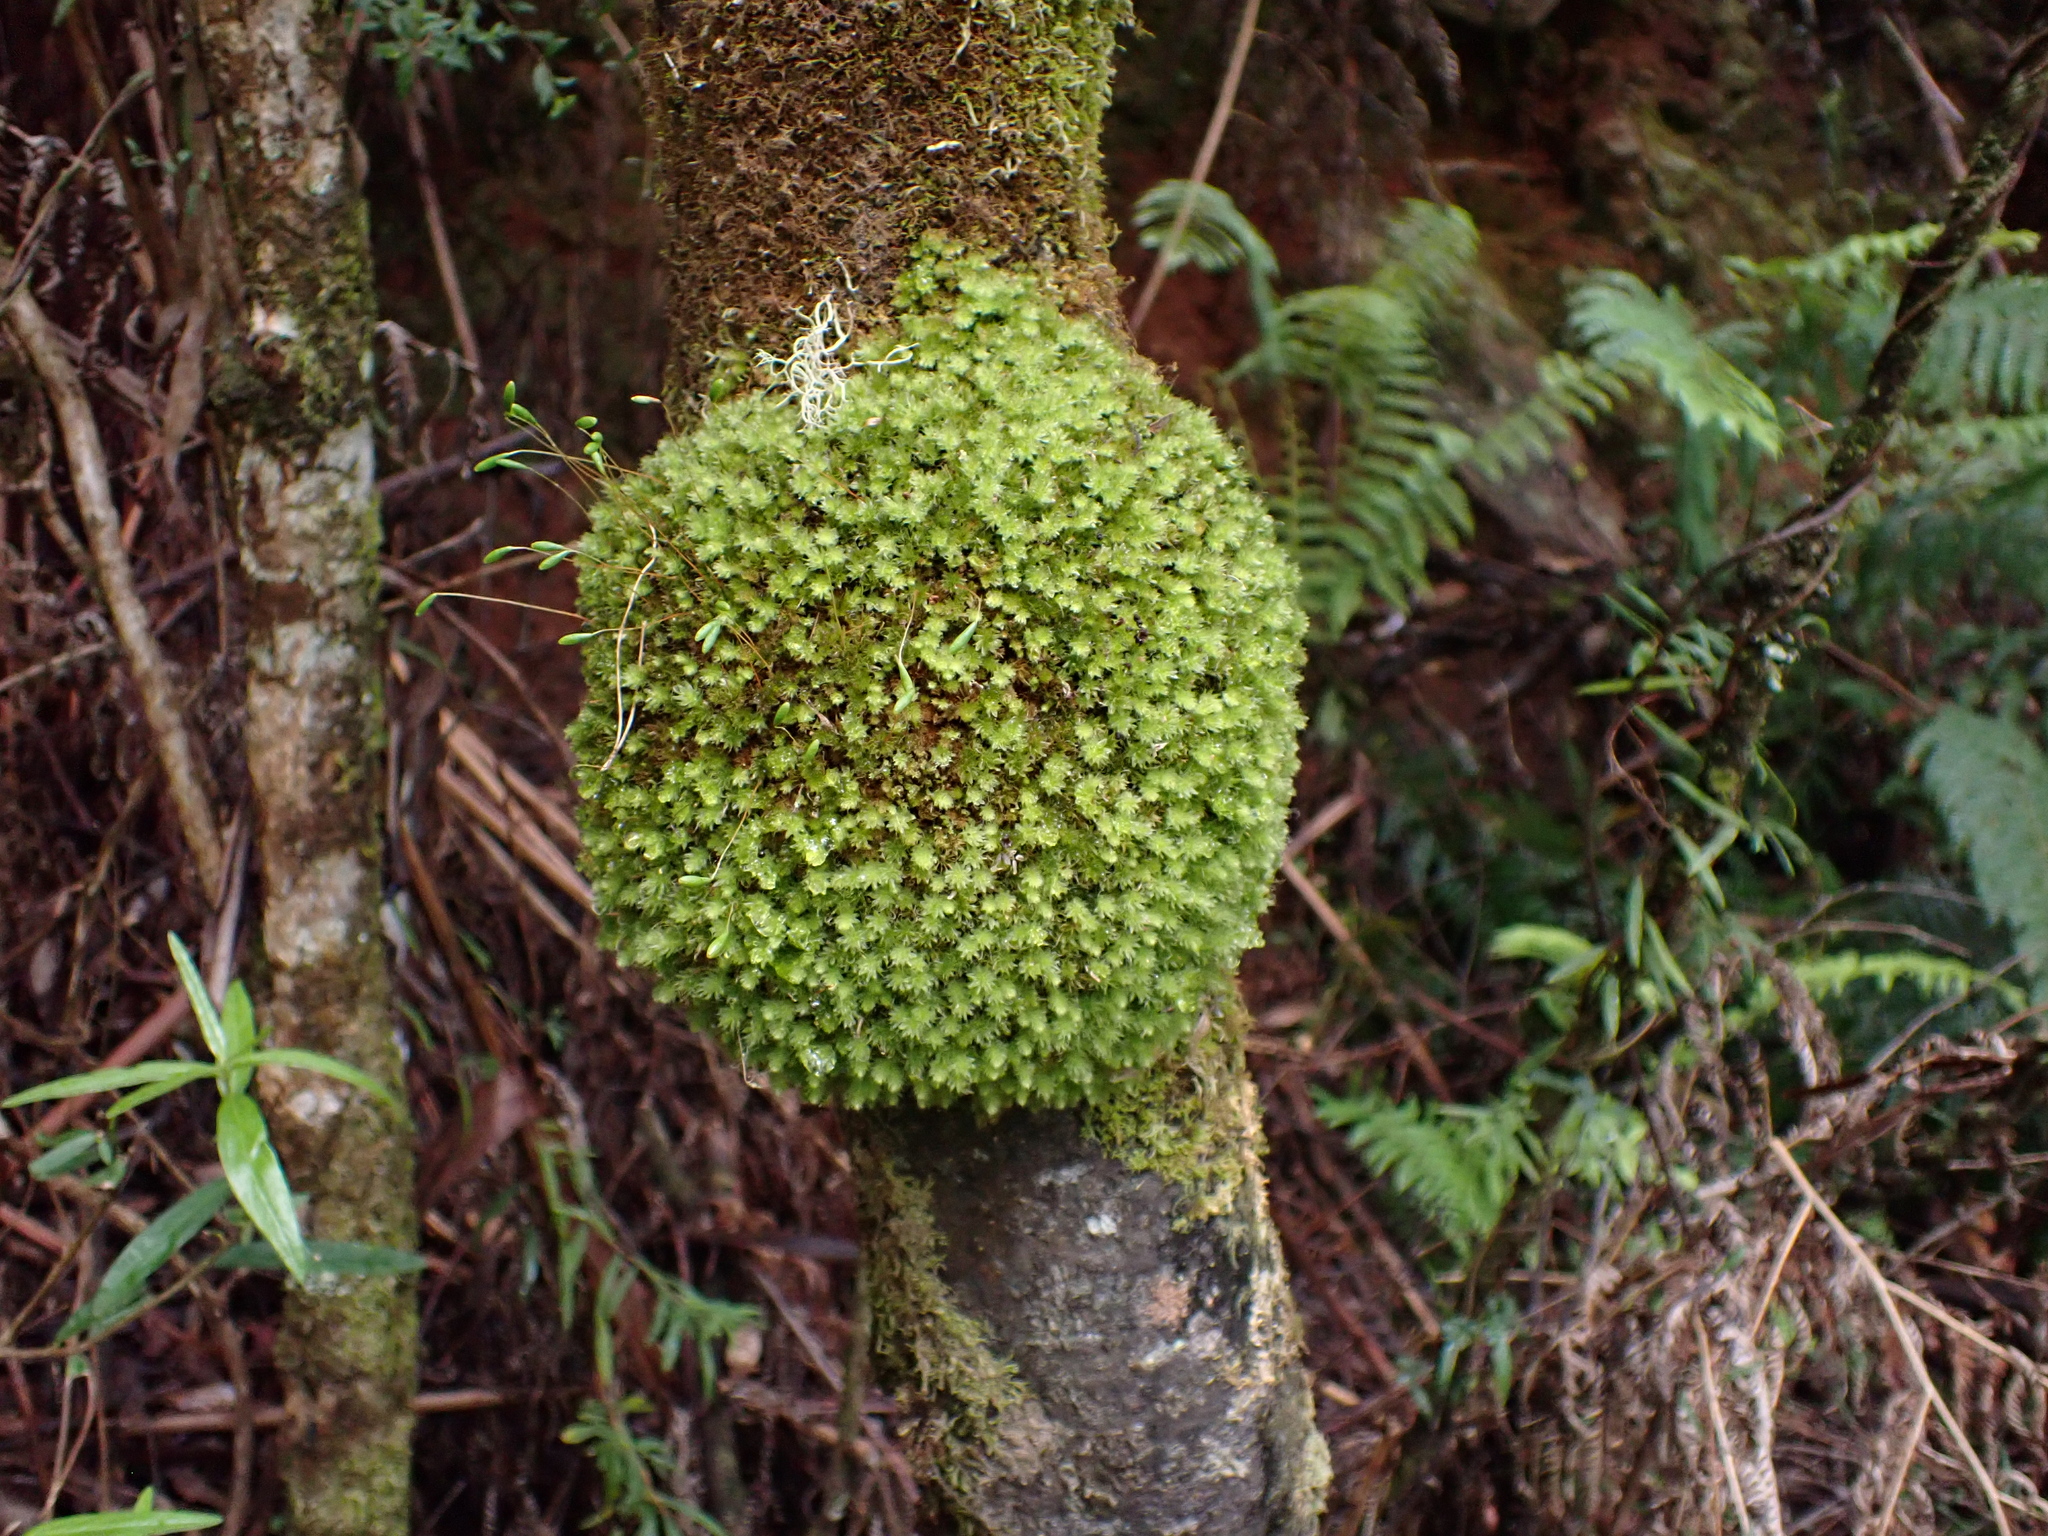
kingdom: Plantae
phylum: Bryophyta
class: Bryopsida
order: Bryales
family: Leptostomataceae
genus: Leptostomum
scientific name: Leptostomum inclinans
